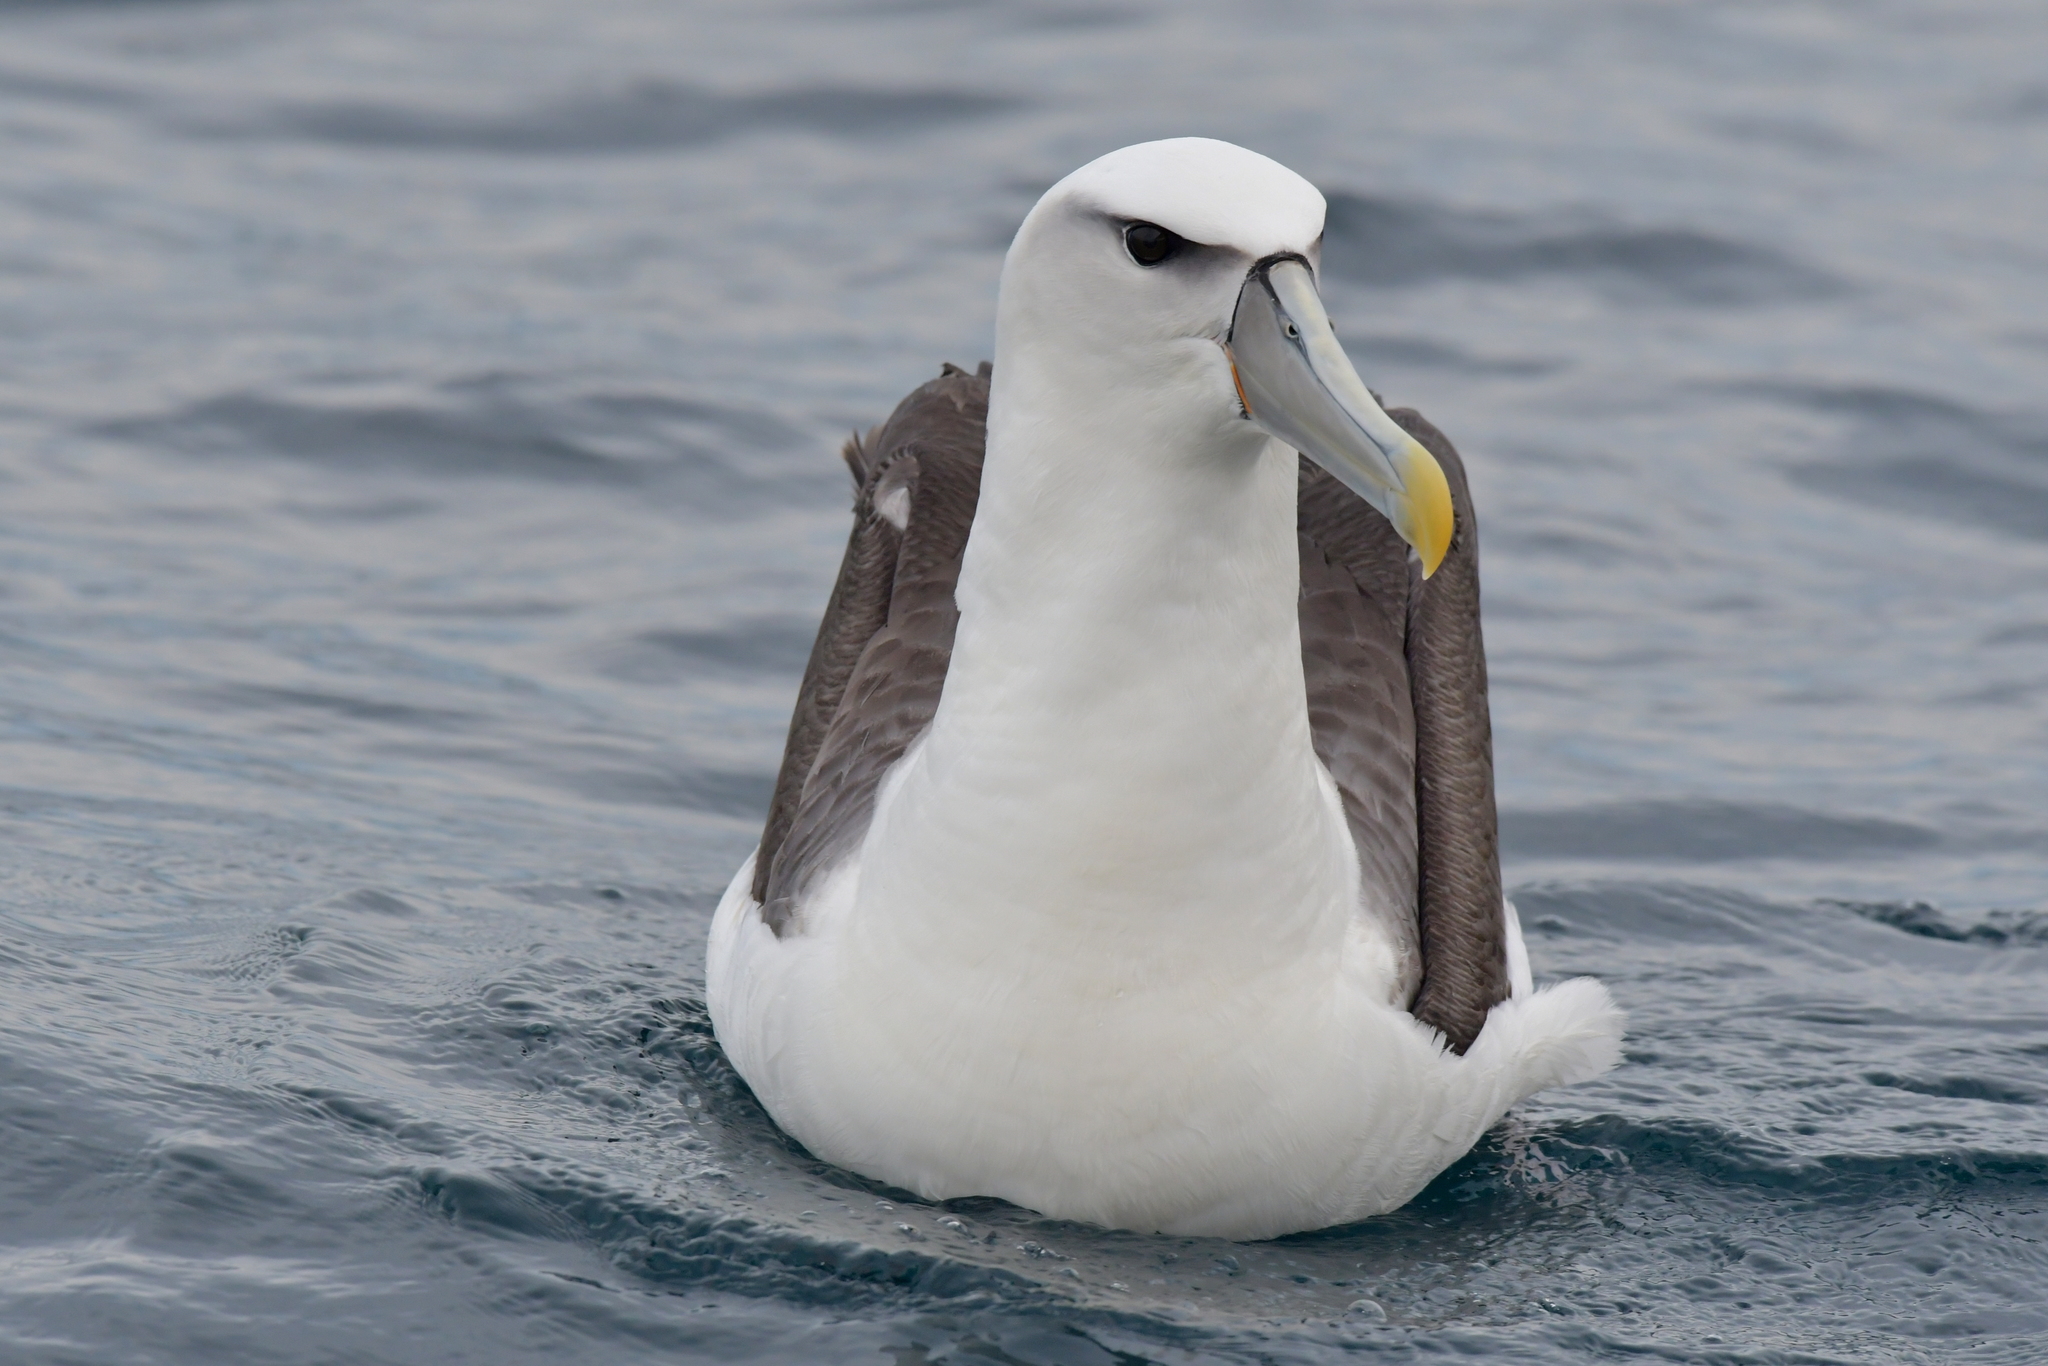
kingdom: Animalia
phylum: Chordata
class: Aves
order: Procellariiformes
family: Diomedeidae
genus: Thalassarche
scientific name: Thalassarche cauta
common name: Shy albatross
